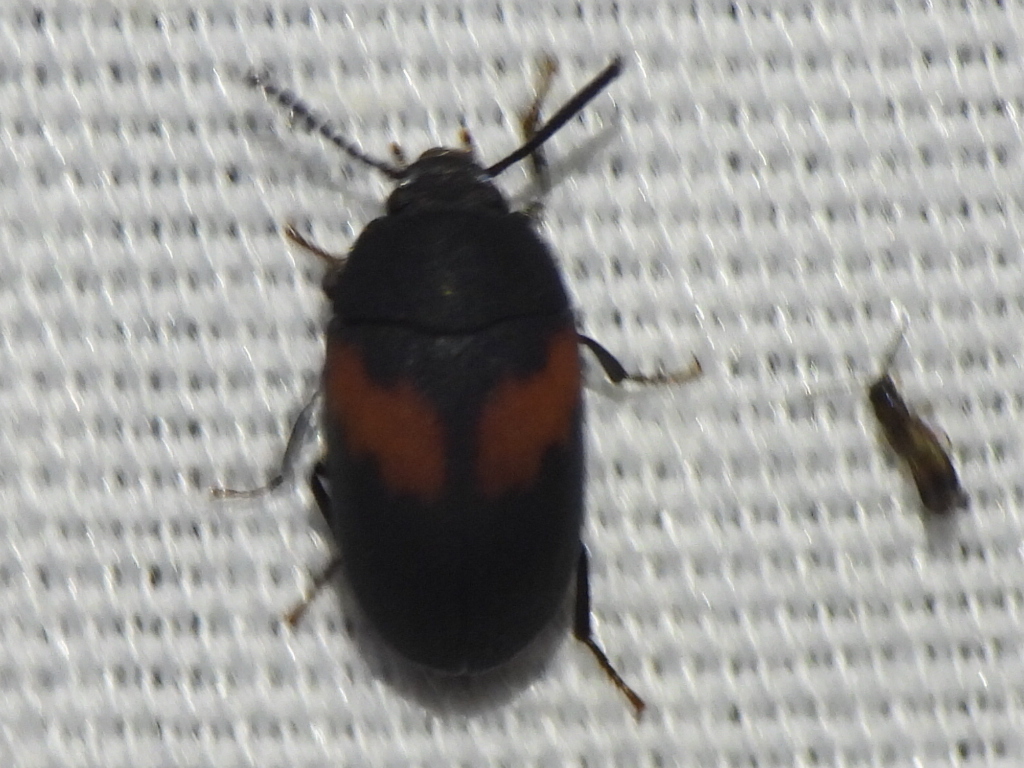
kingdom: Animalia
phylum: Arthropoda
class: Insecta
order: Coleoptera
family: Tenebrionidae
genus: Platydema
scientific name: Platydema elliptica
